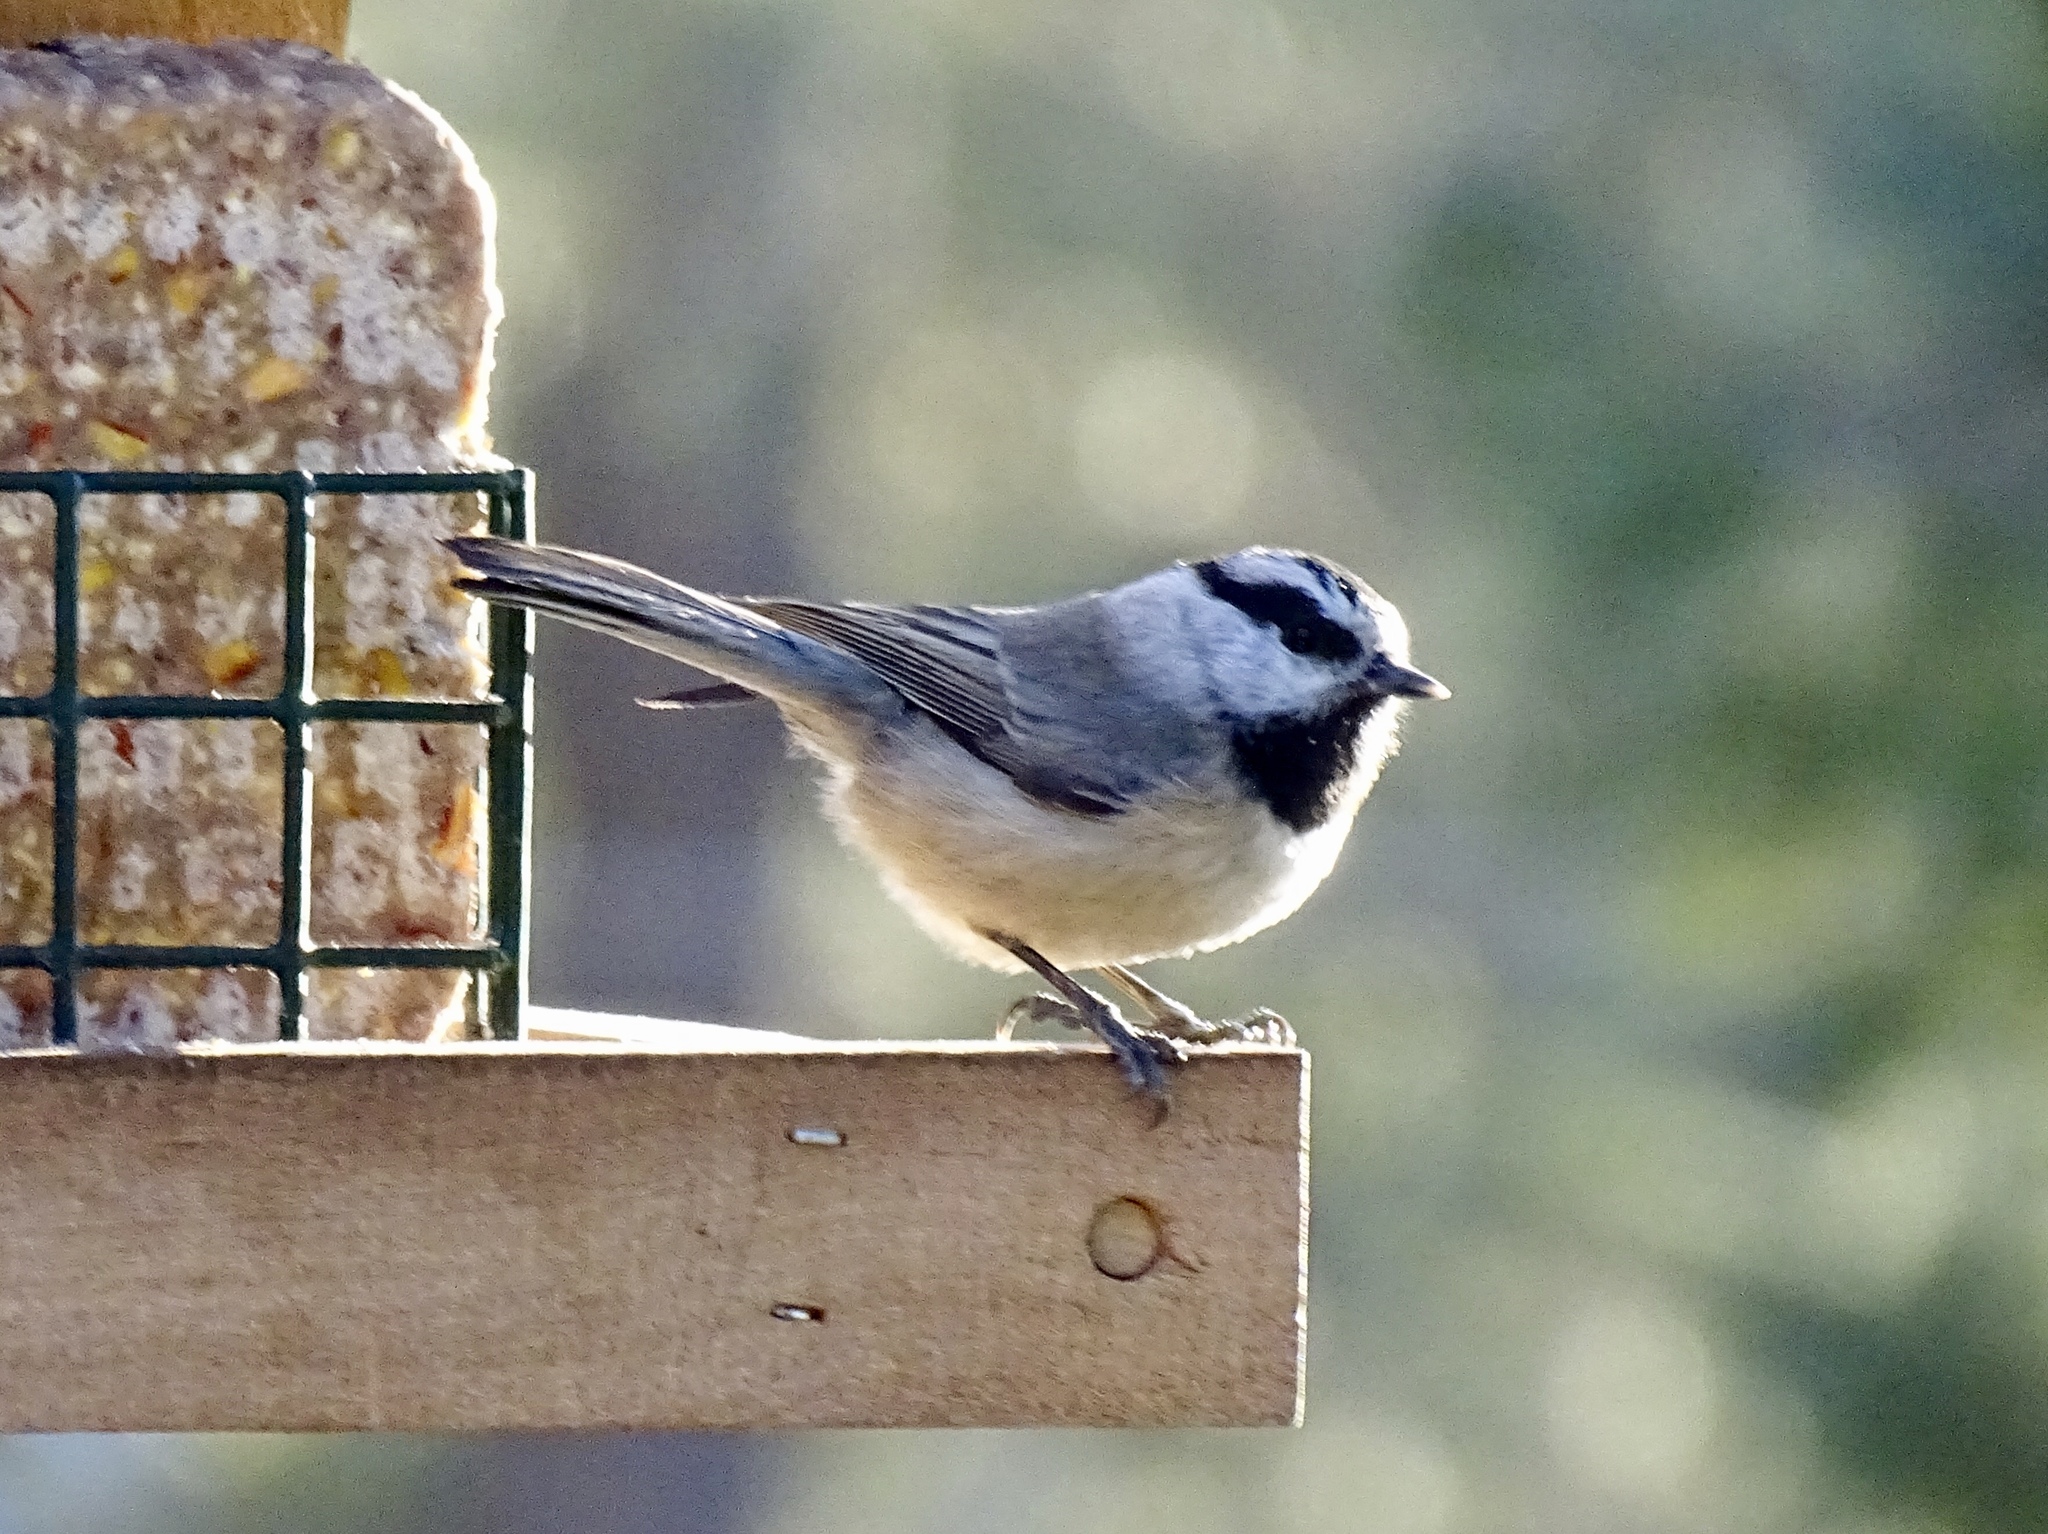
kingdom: Animalia
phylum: Chordata
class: Aves
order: Passeriformes
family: Paridae
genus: Poecile
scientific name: Poecile gambeli
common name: Mountain chickadee
